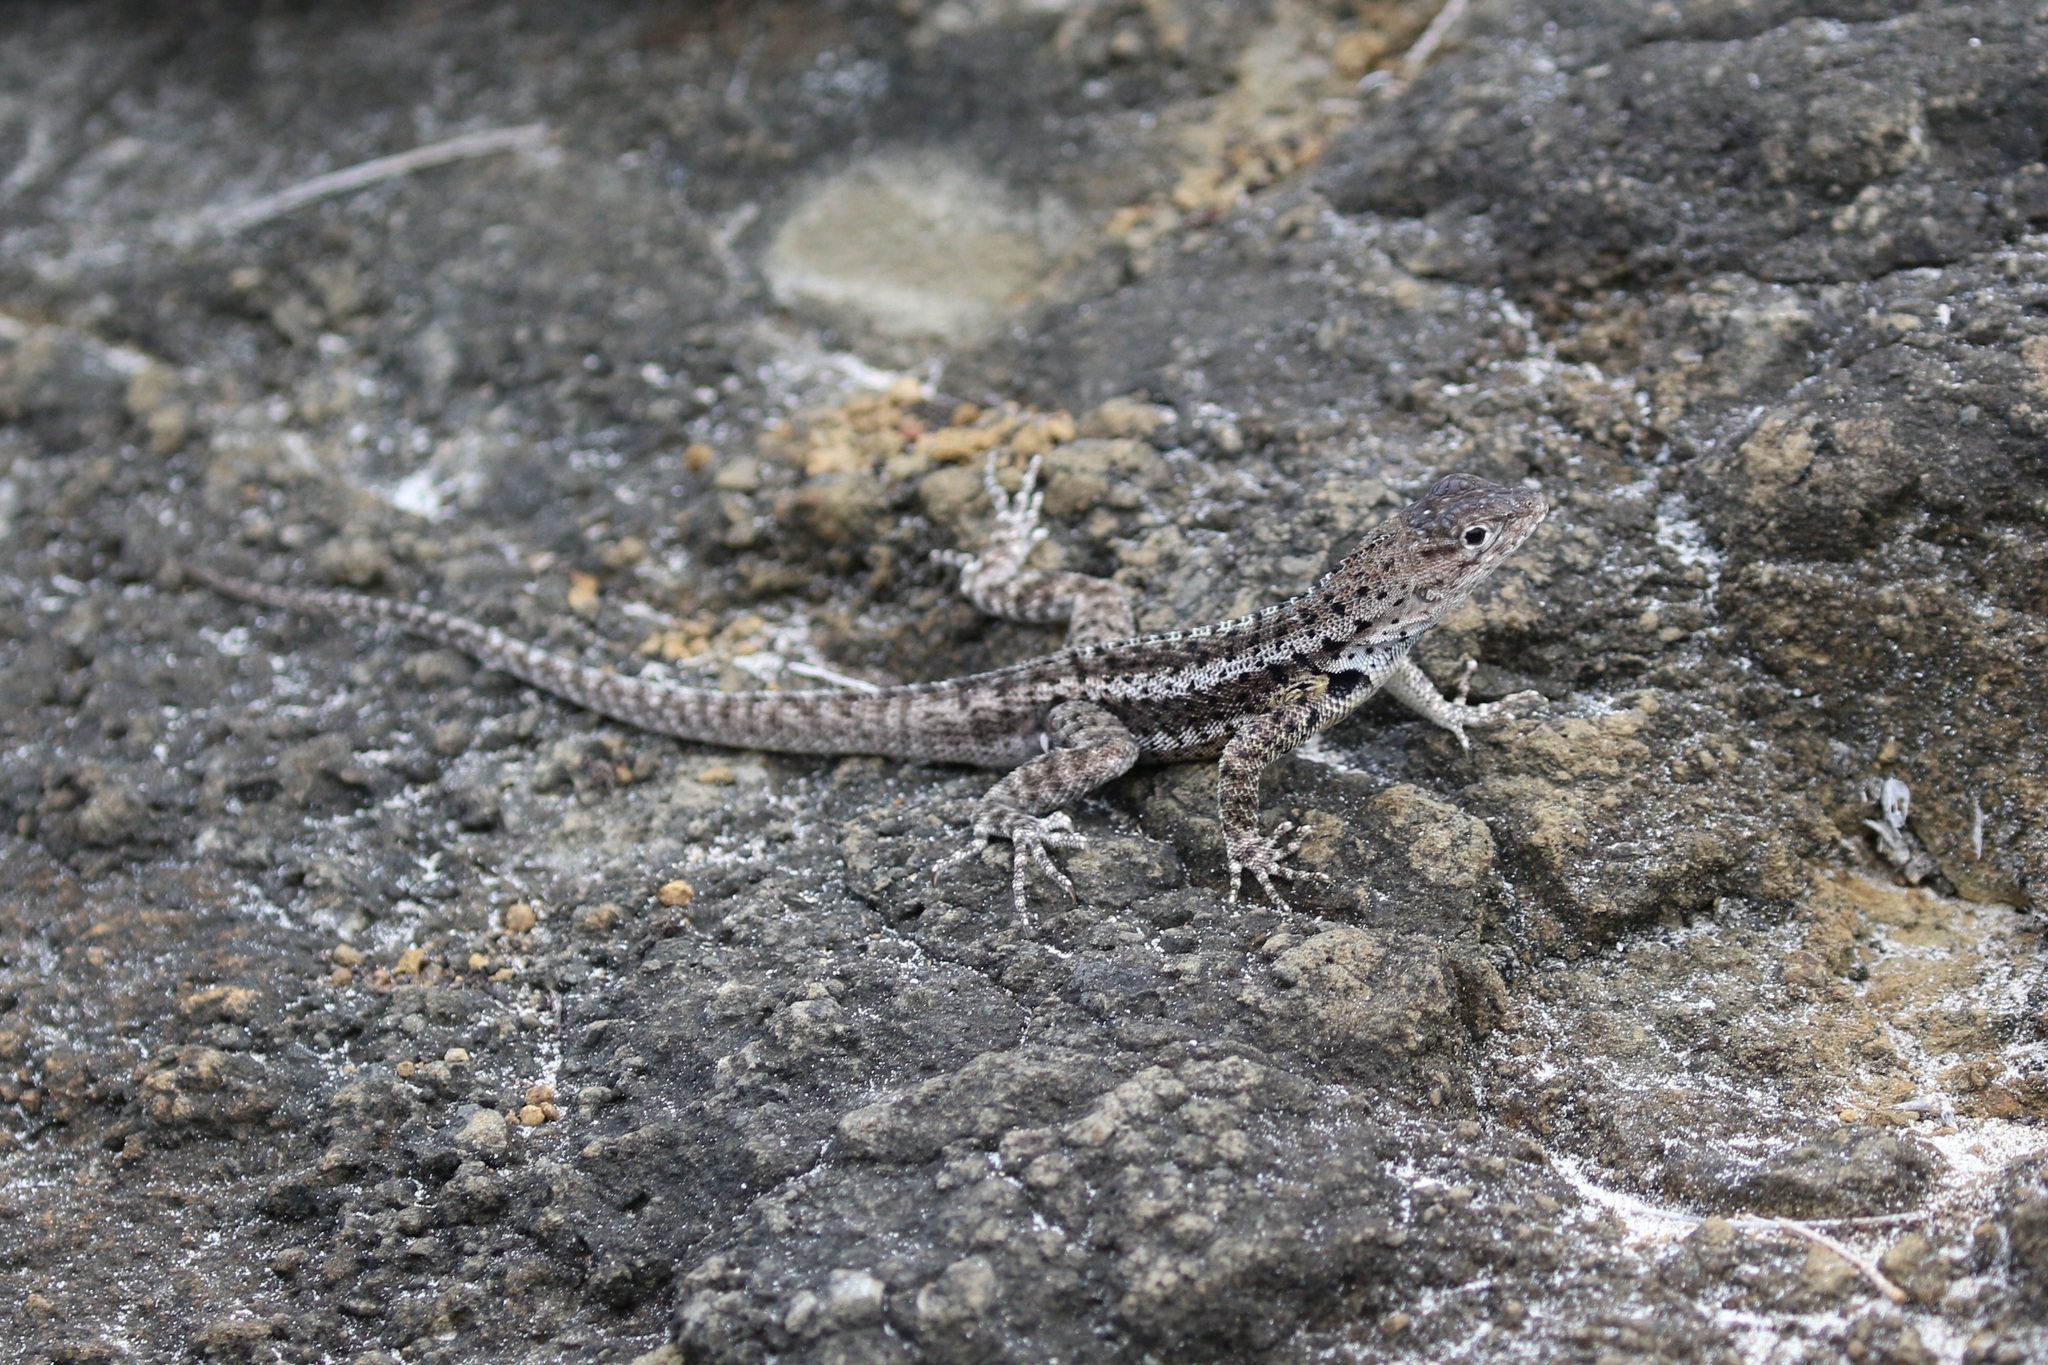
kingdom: Animalia
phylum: Chordata
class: Squamata
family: Tropiduridae
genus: Microlophus
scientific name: Microlophus grayii
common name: Floreana lava lizard
